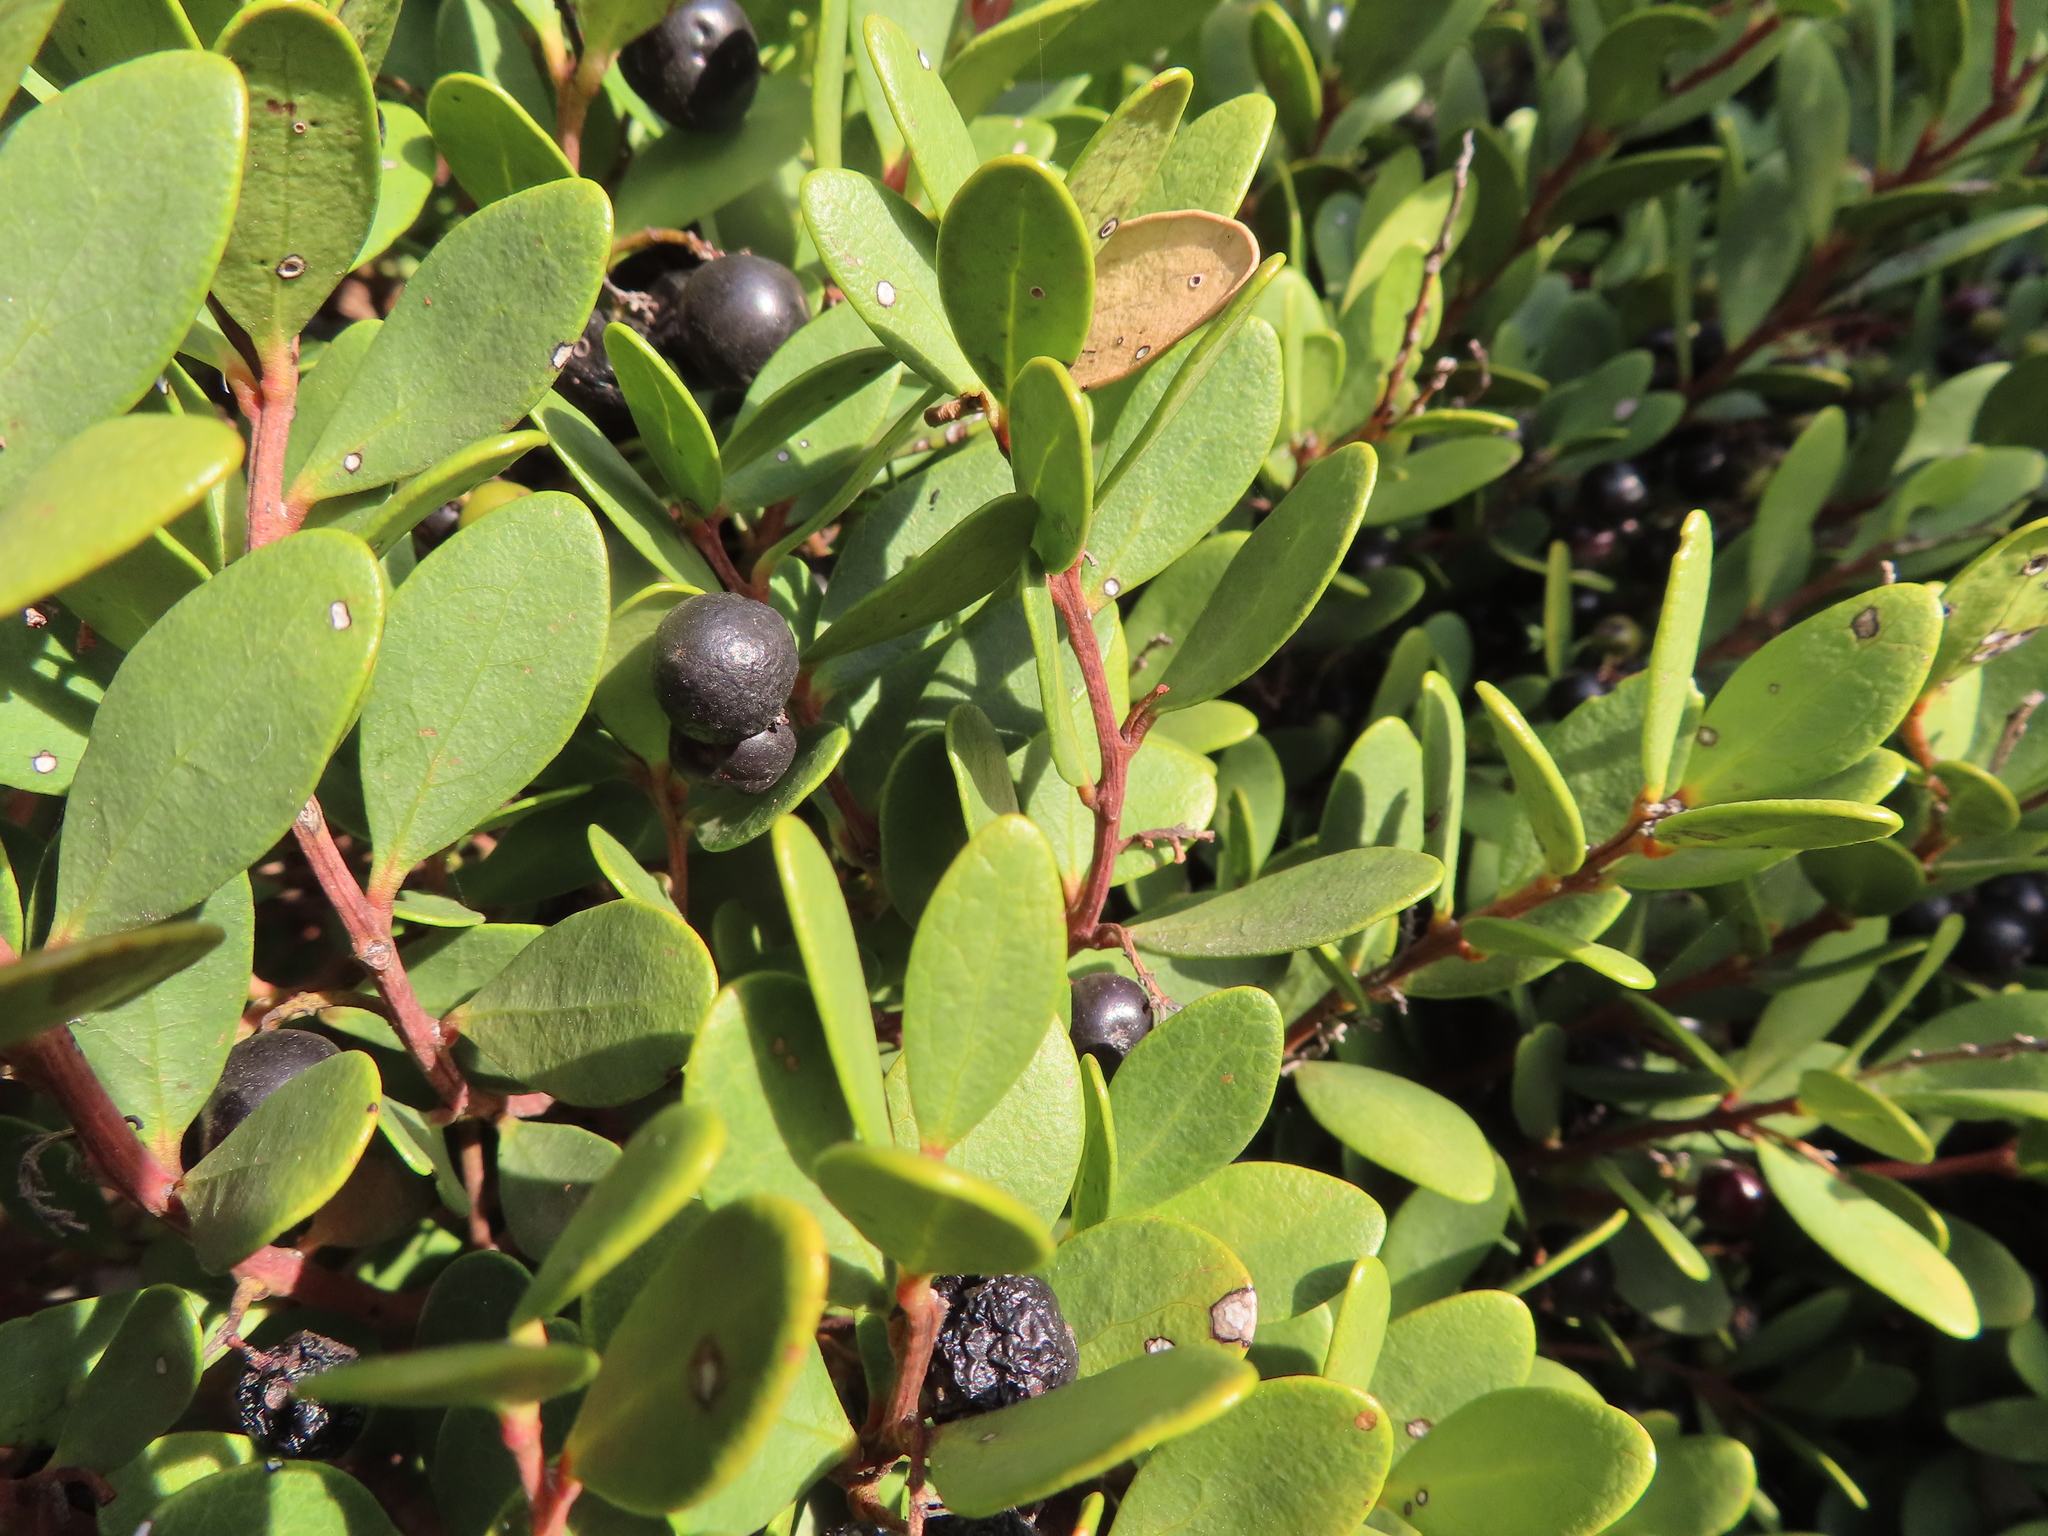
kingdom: Plantae
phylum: Tracheophyta
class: Magnoliopsida
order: Ericales
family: Ebenaceae
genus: Euclea
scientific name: Euclea racemosa
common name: Dune guarri
